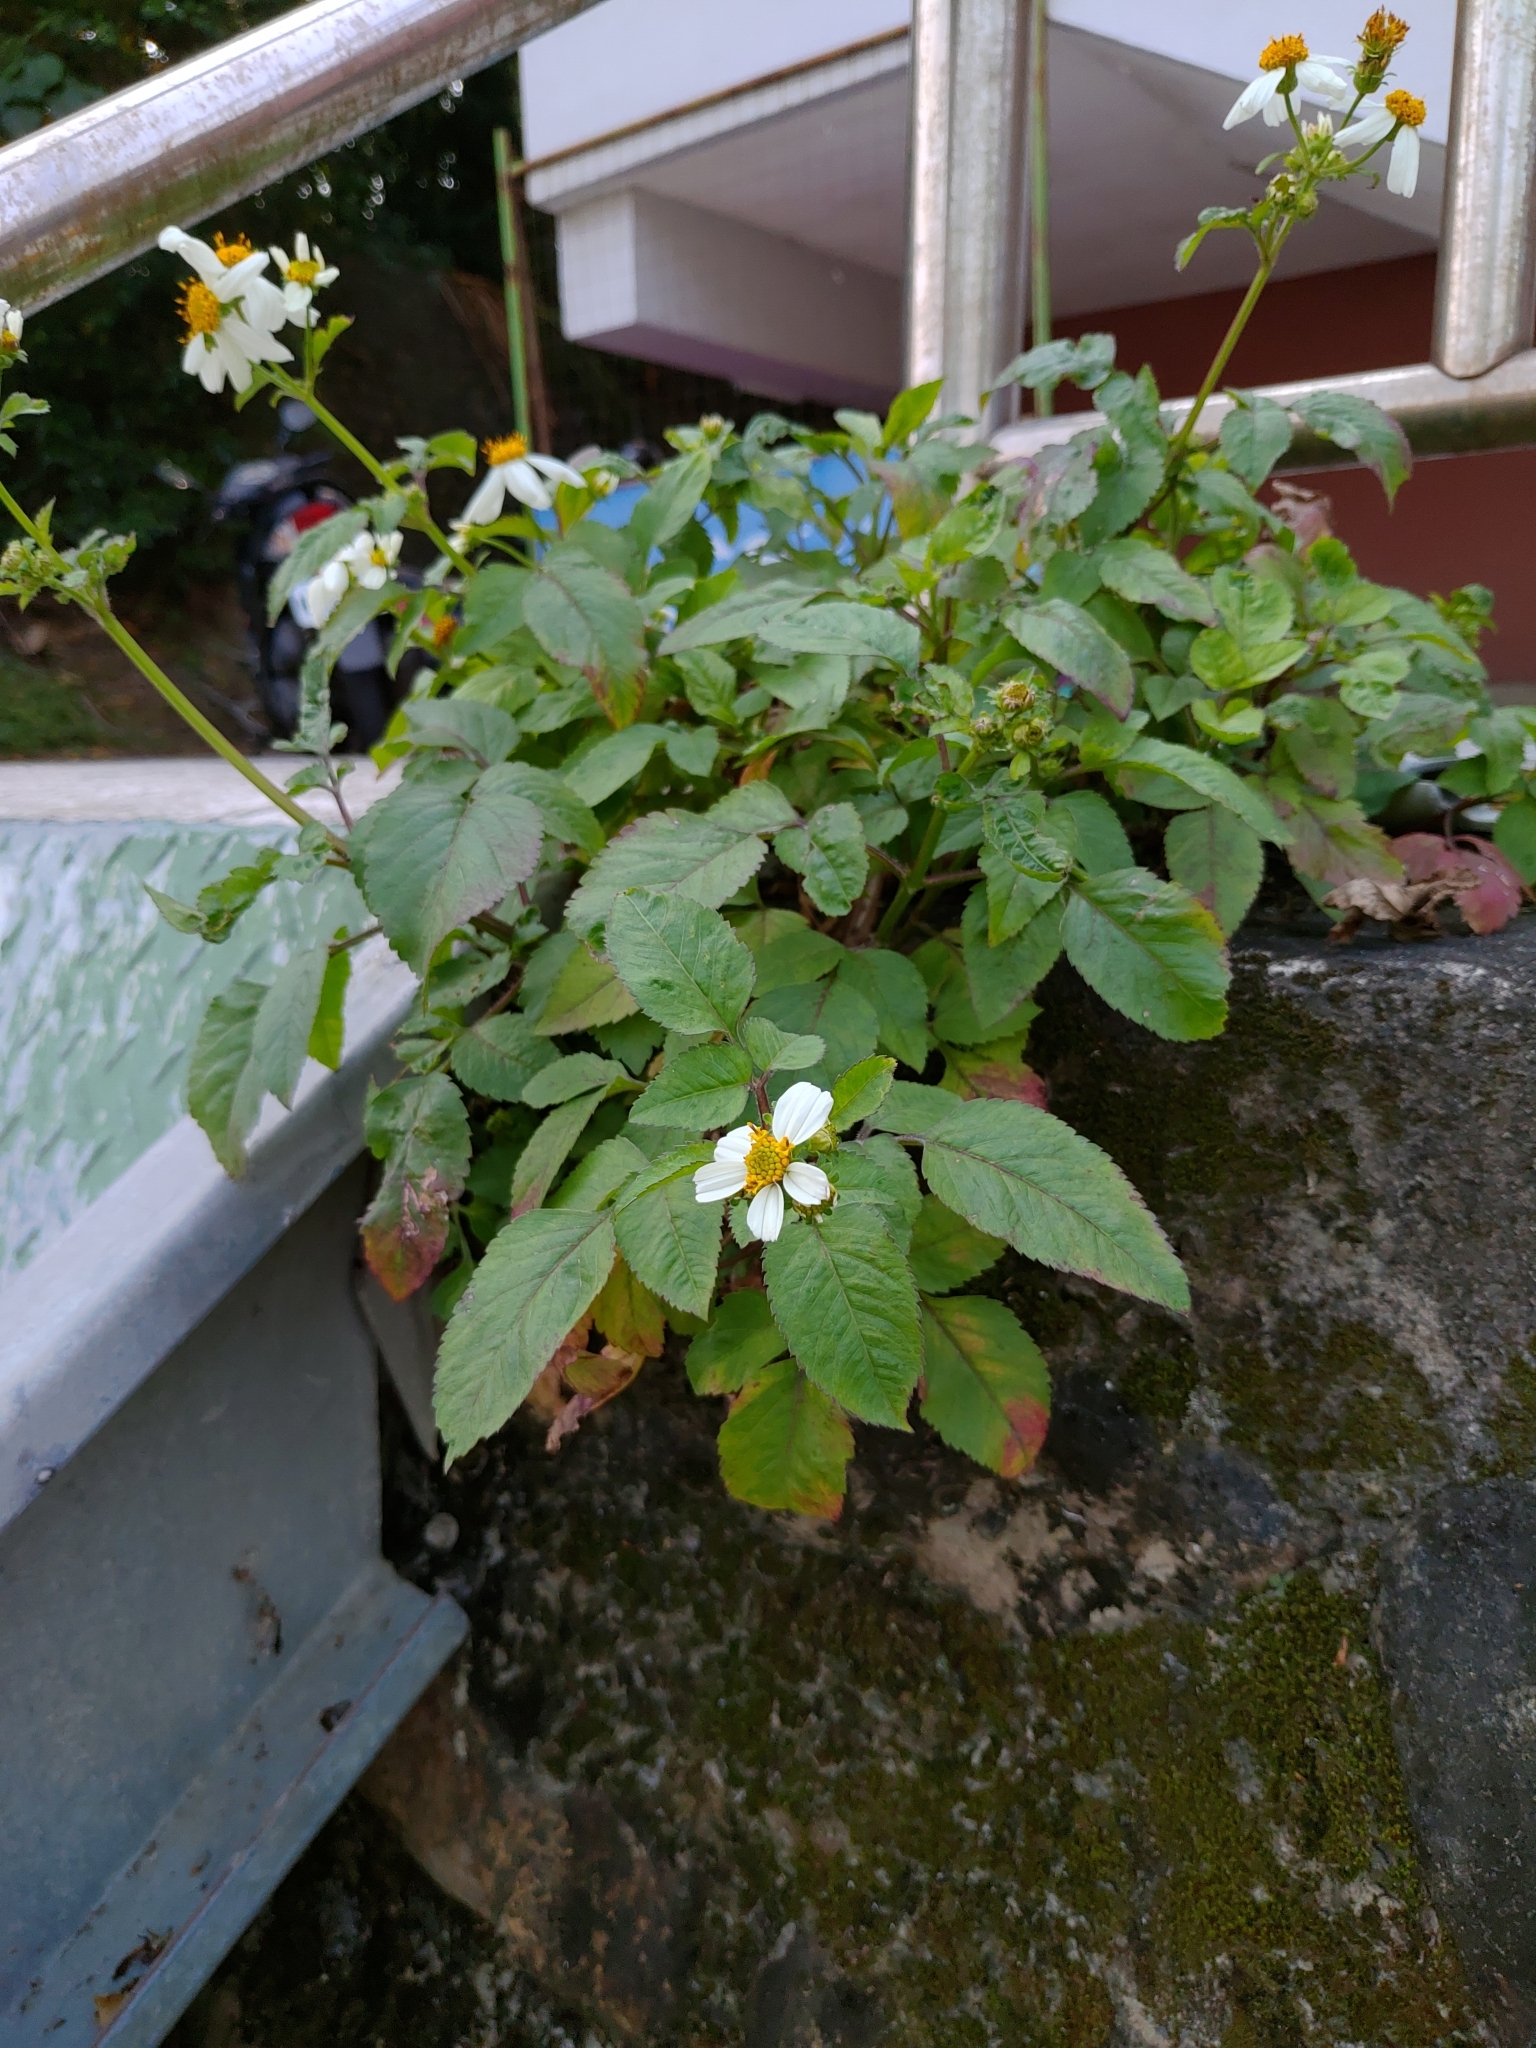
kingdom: Plantae
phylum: Tracheophyta
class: Magnoliopsida
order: Asterales
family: Asteraceae
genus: Bidens
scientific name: Bidens alba
